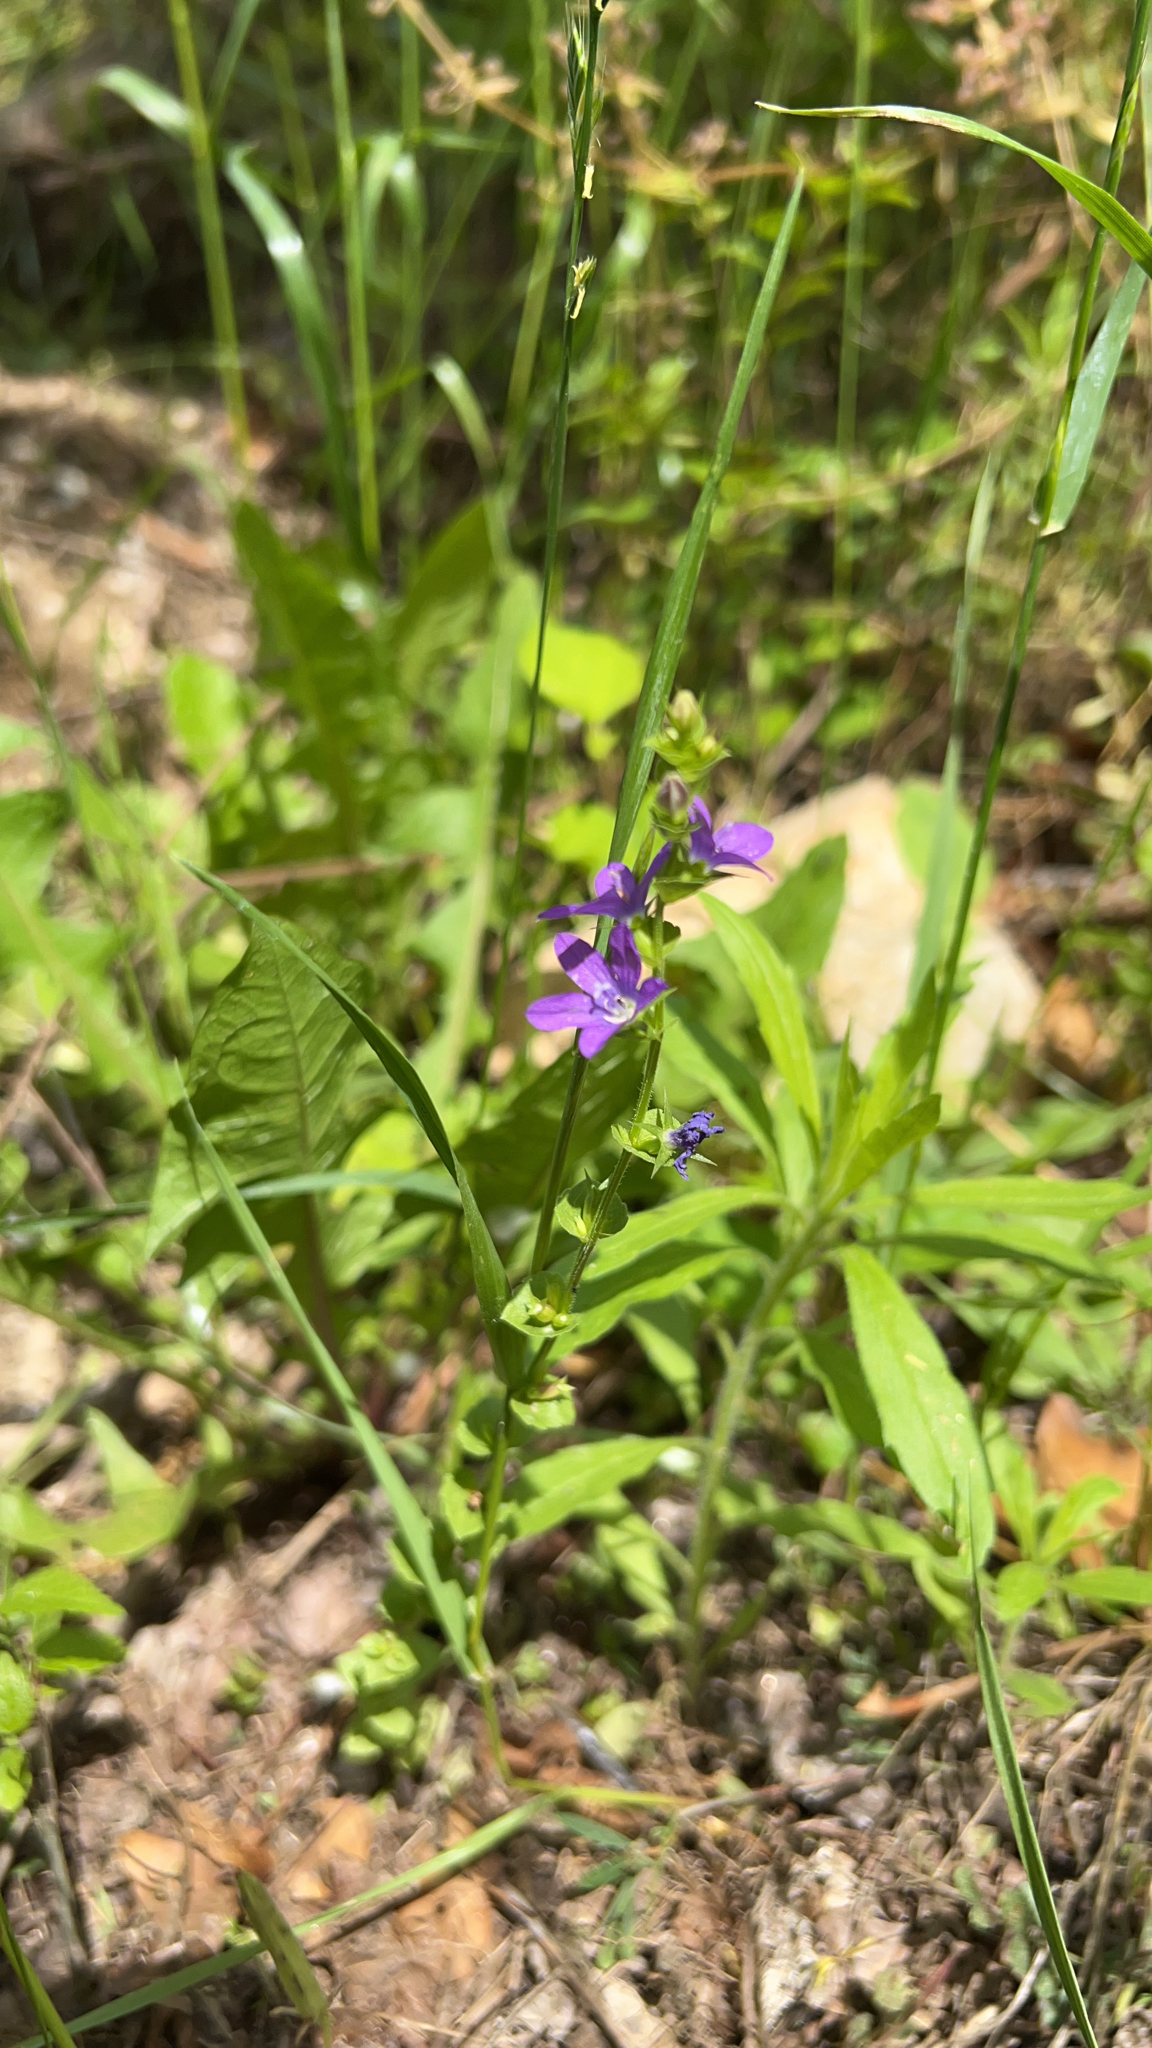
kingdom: Plantae
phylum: Tracheophyta
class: Magnoliopsida
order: Asterales
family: Campanulaceae
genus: Triodanis
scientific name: Triodanis perfoliata
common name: Clasping venus' looking-glass
